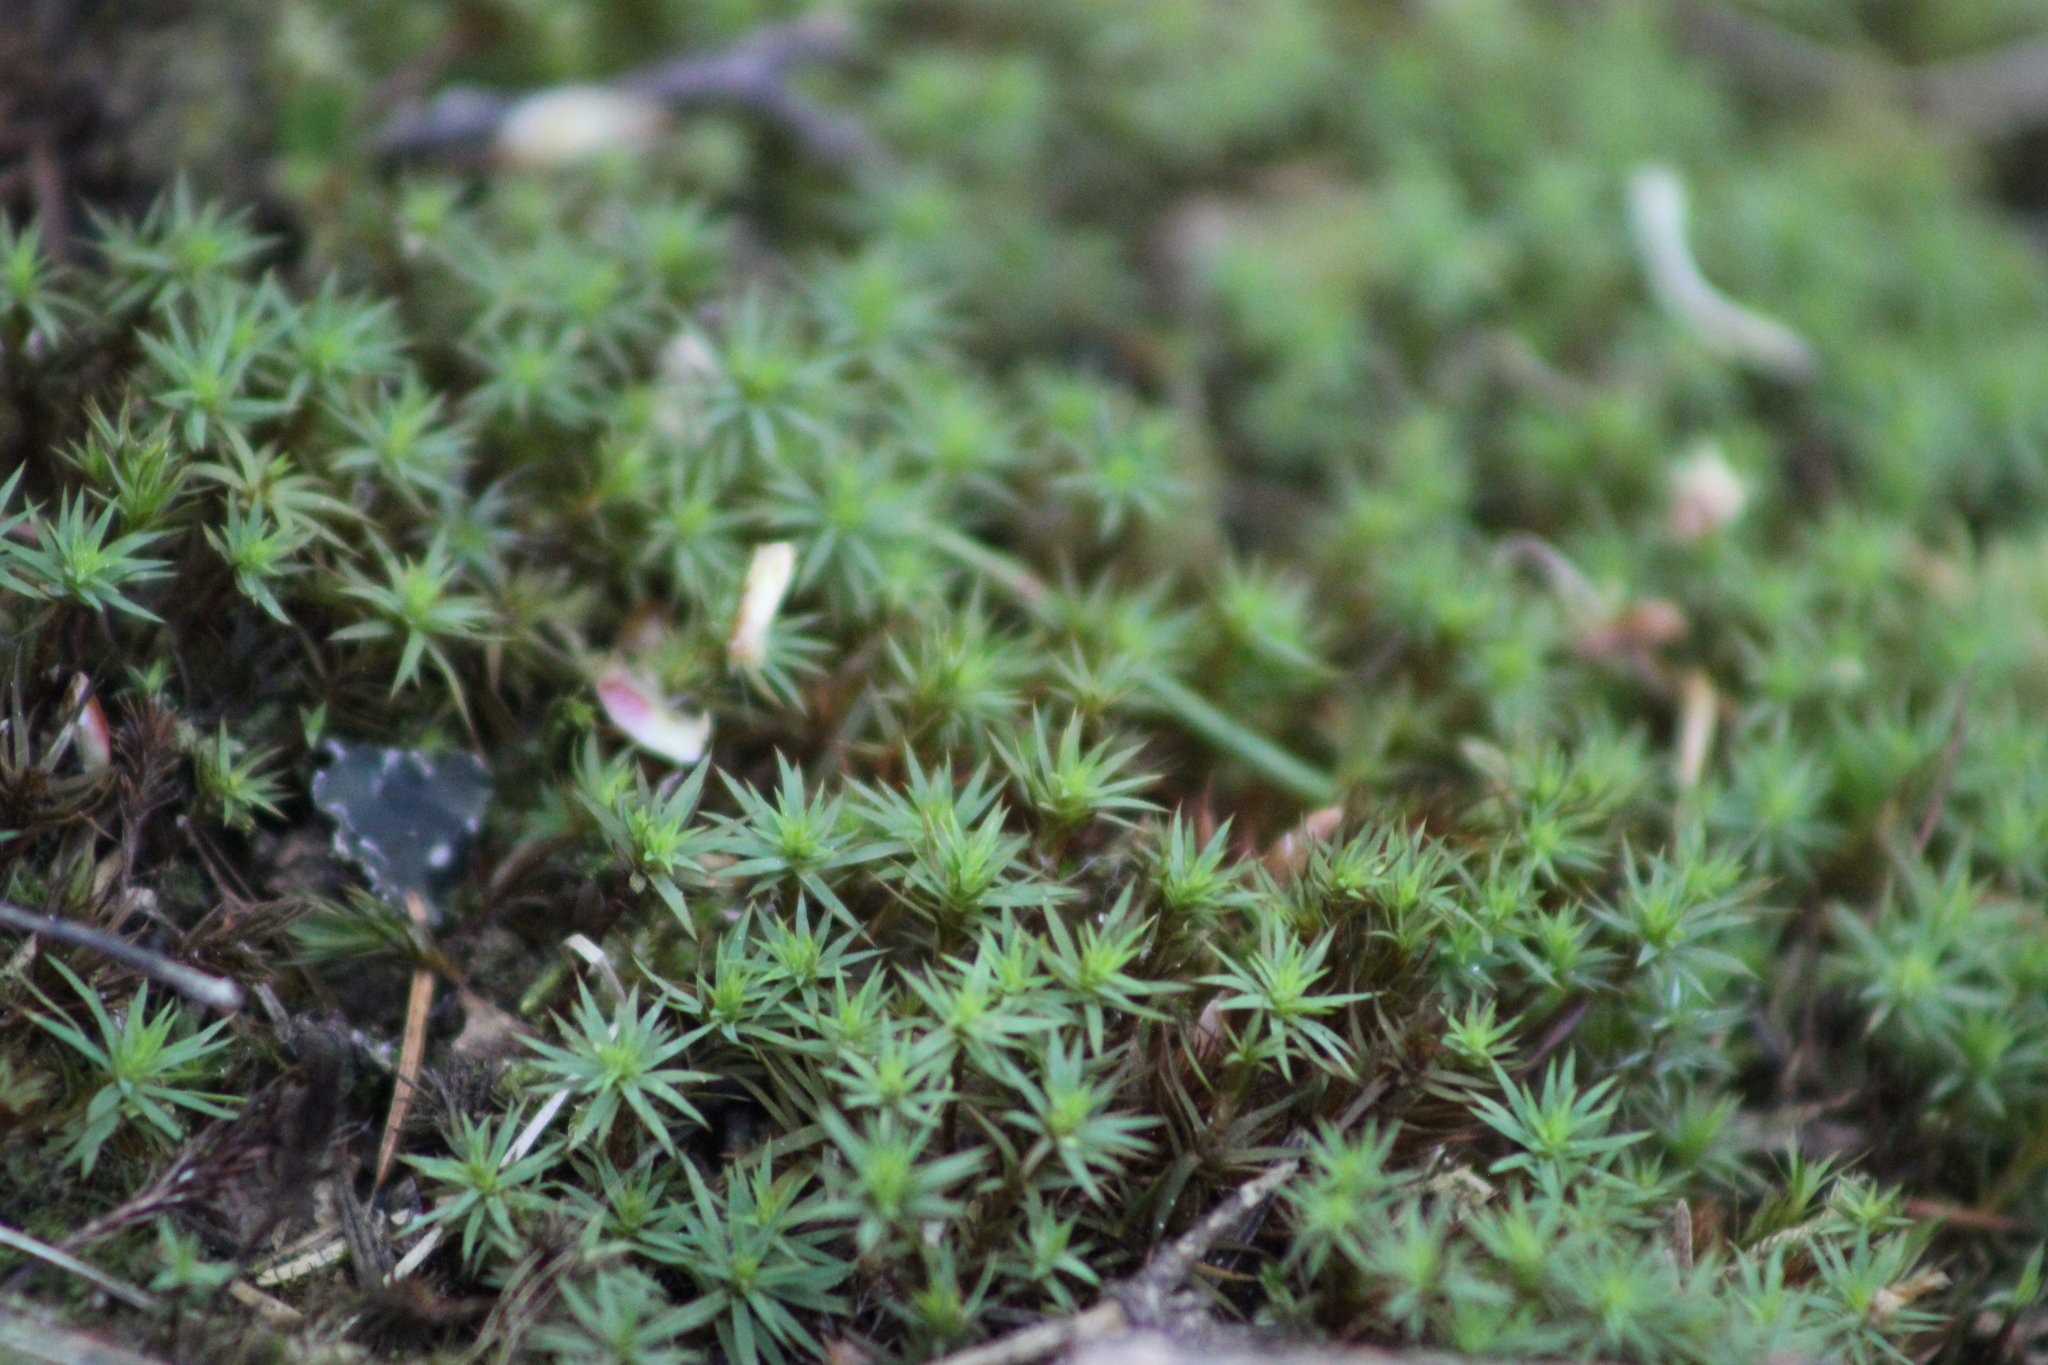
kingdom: Plantae
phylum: Bryophyta
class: Polytrichopsida
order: Polytrichales
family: Polytrichaceae
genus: Polytrichum
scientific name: Polytrichum juniperinum
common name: Juniper haircap moss
